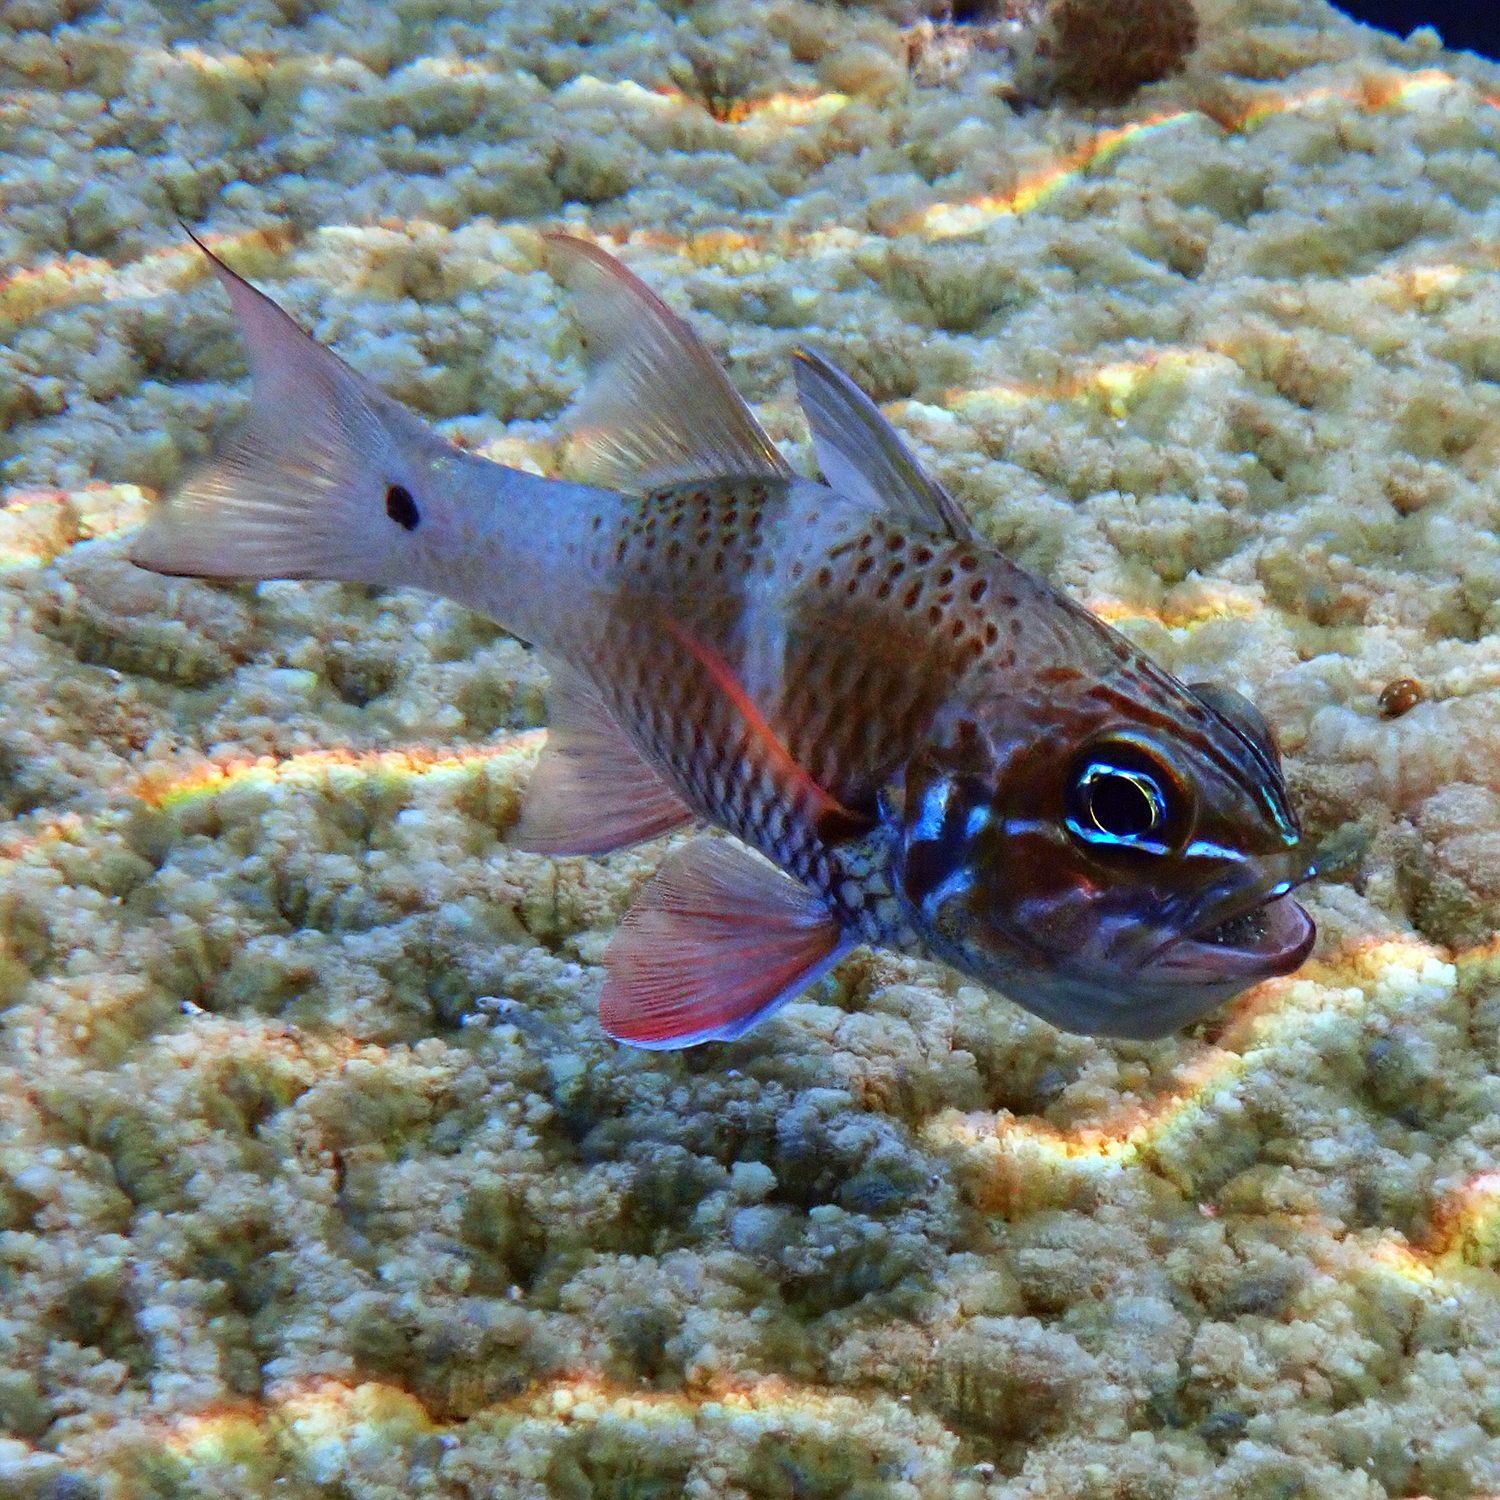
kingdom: Animalia
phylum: Chordata
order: Perciformes
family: Apogonidae
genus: Ostorhinchus
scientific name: Ostorhinchus norfolcensis
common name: Norfolk cardinalfish
